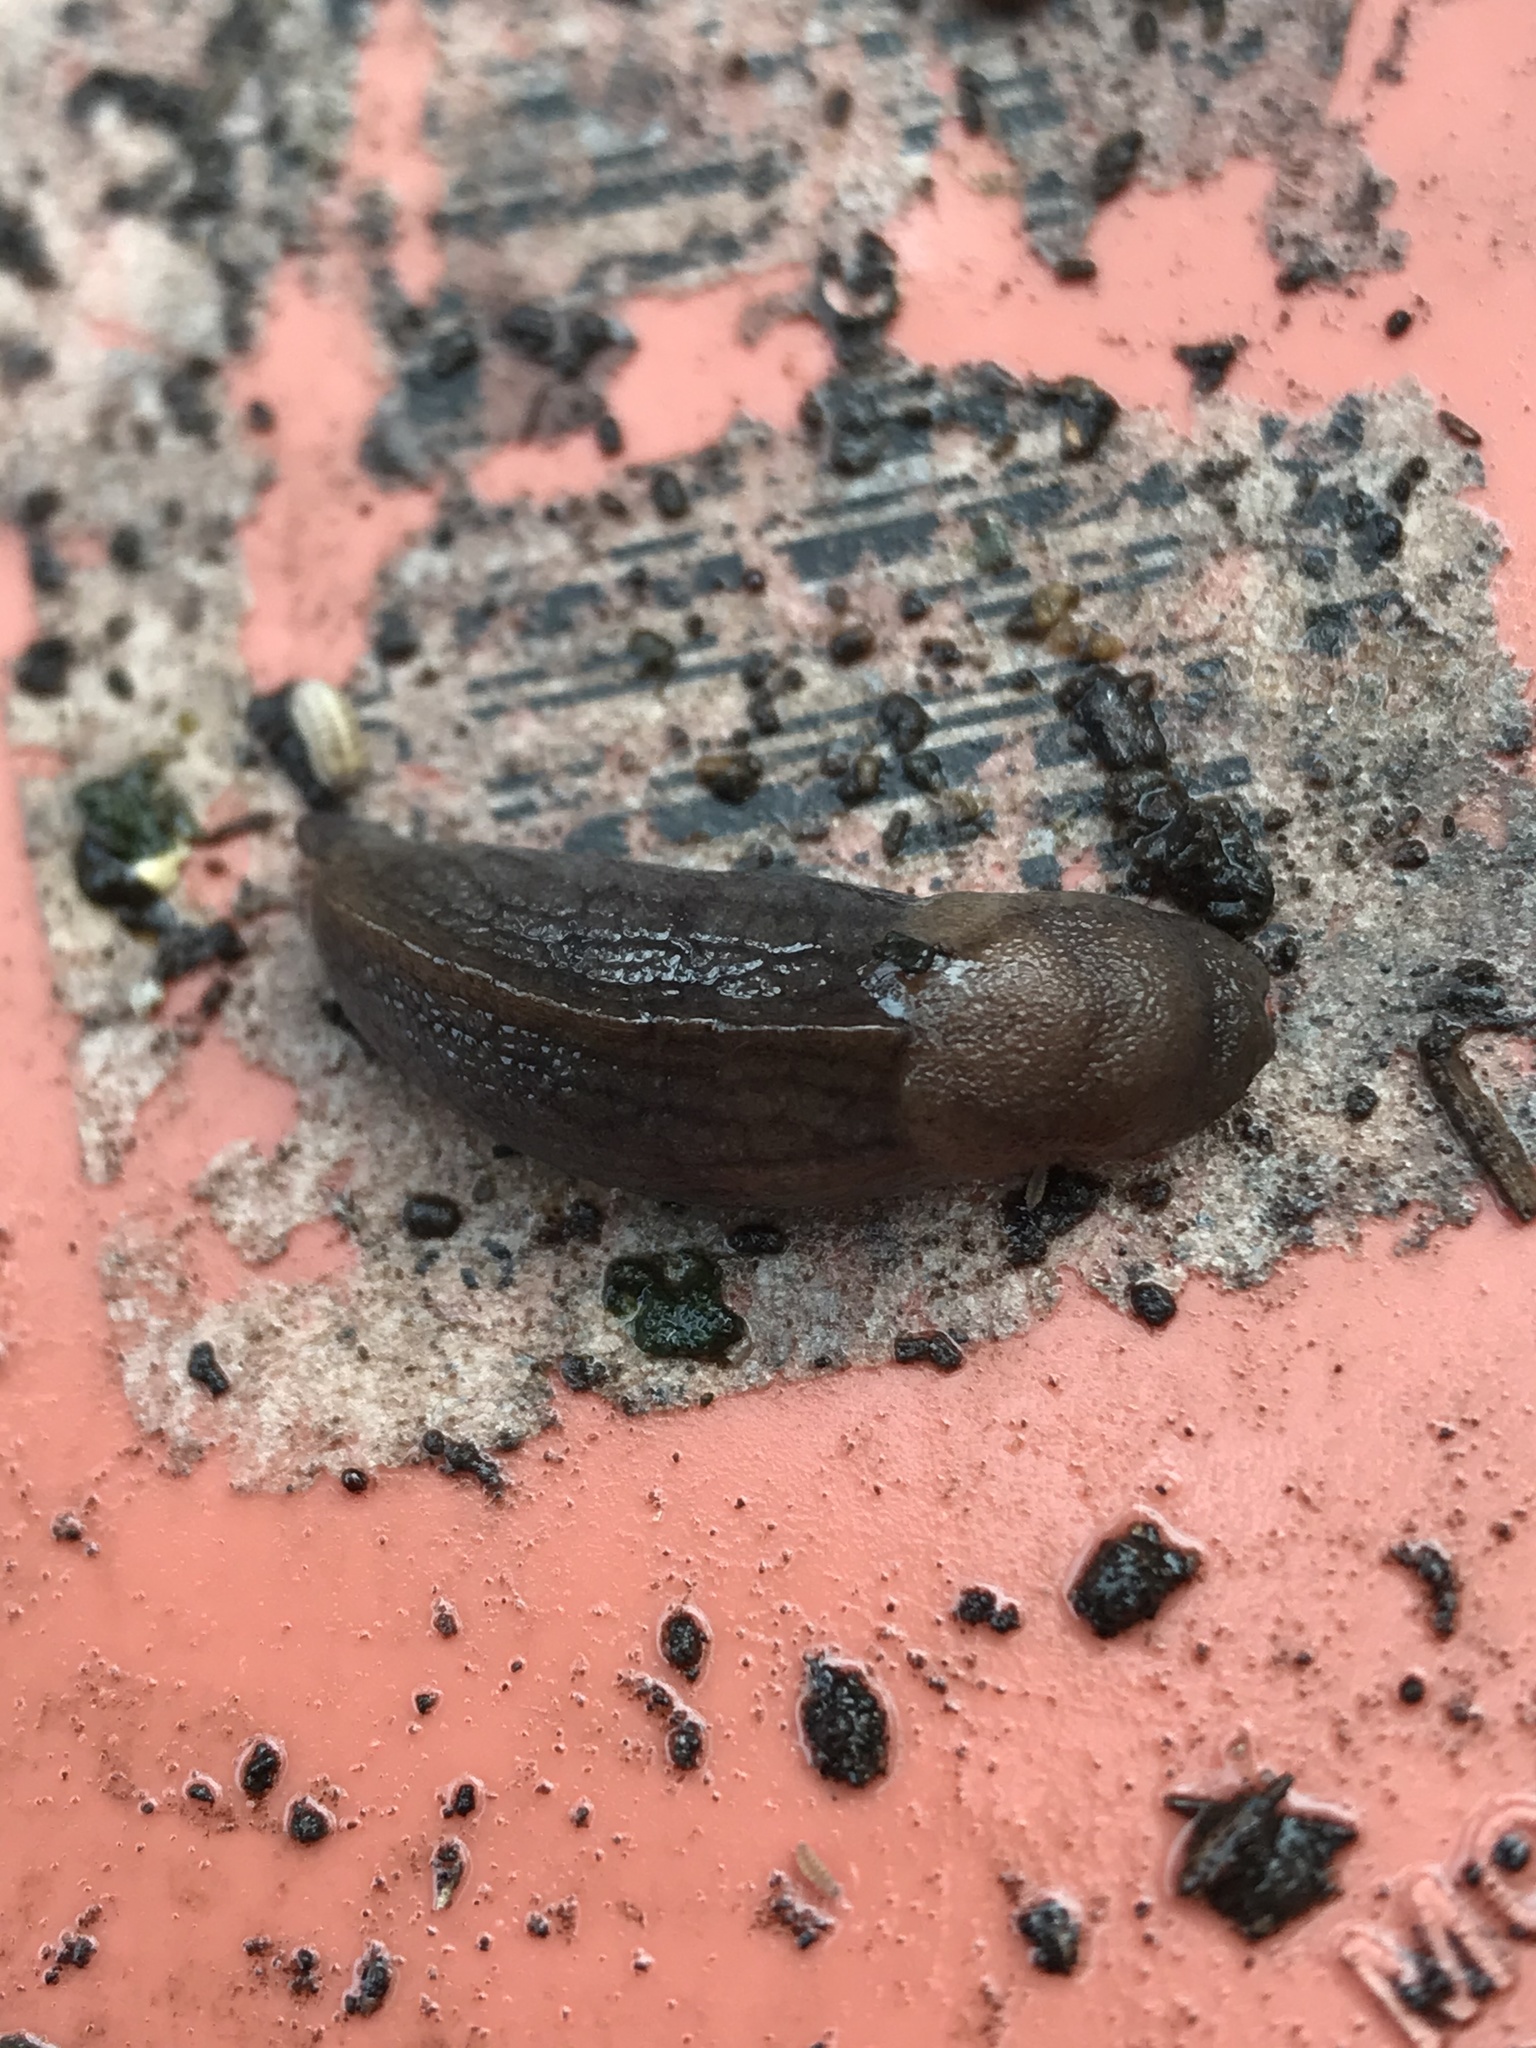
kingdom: Animalia
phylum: Mollusca
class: Gastropoda
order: Stylommatophora
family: Milacidae
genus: Milax
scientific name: Milax gagates
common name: Greenhouse slug
